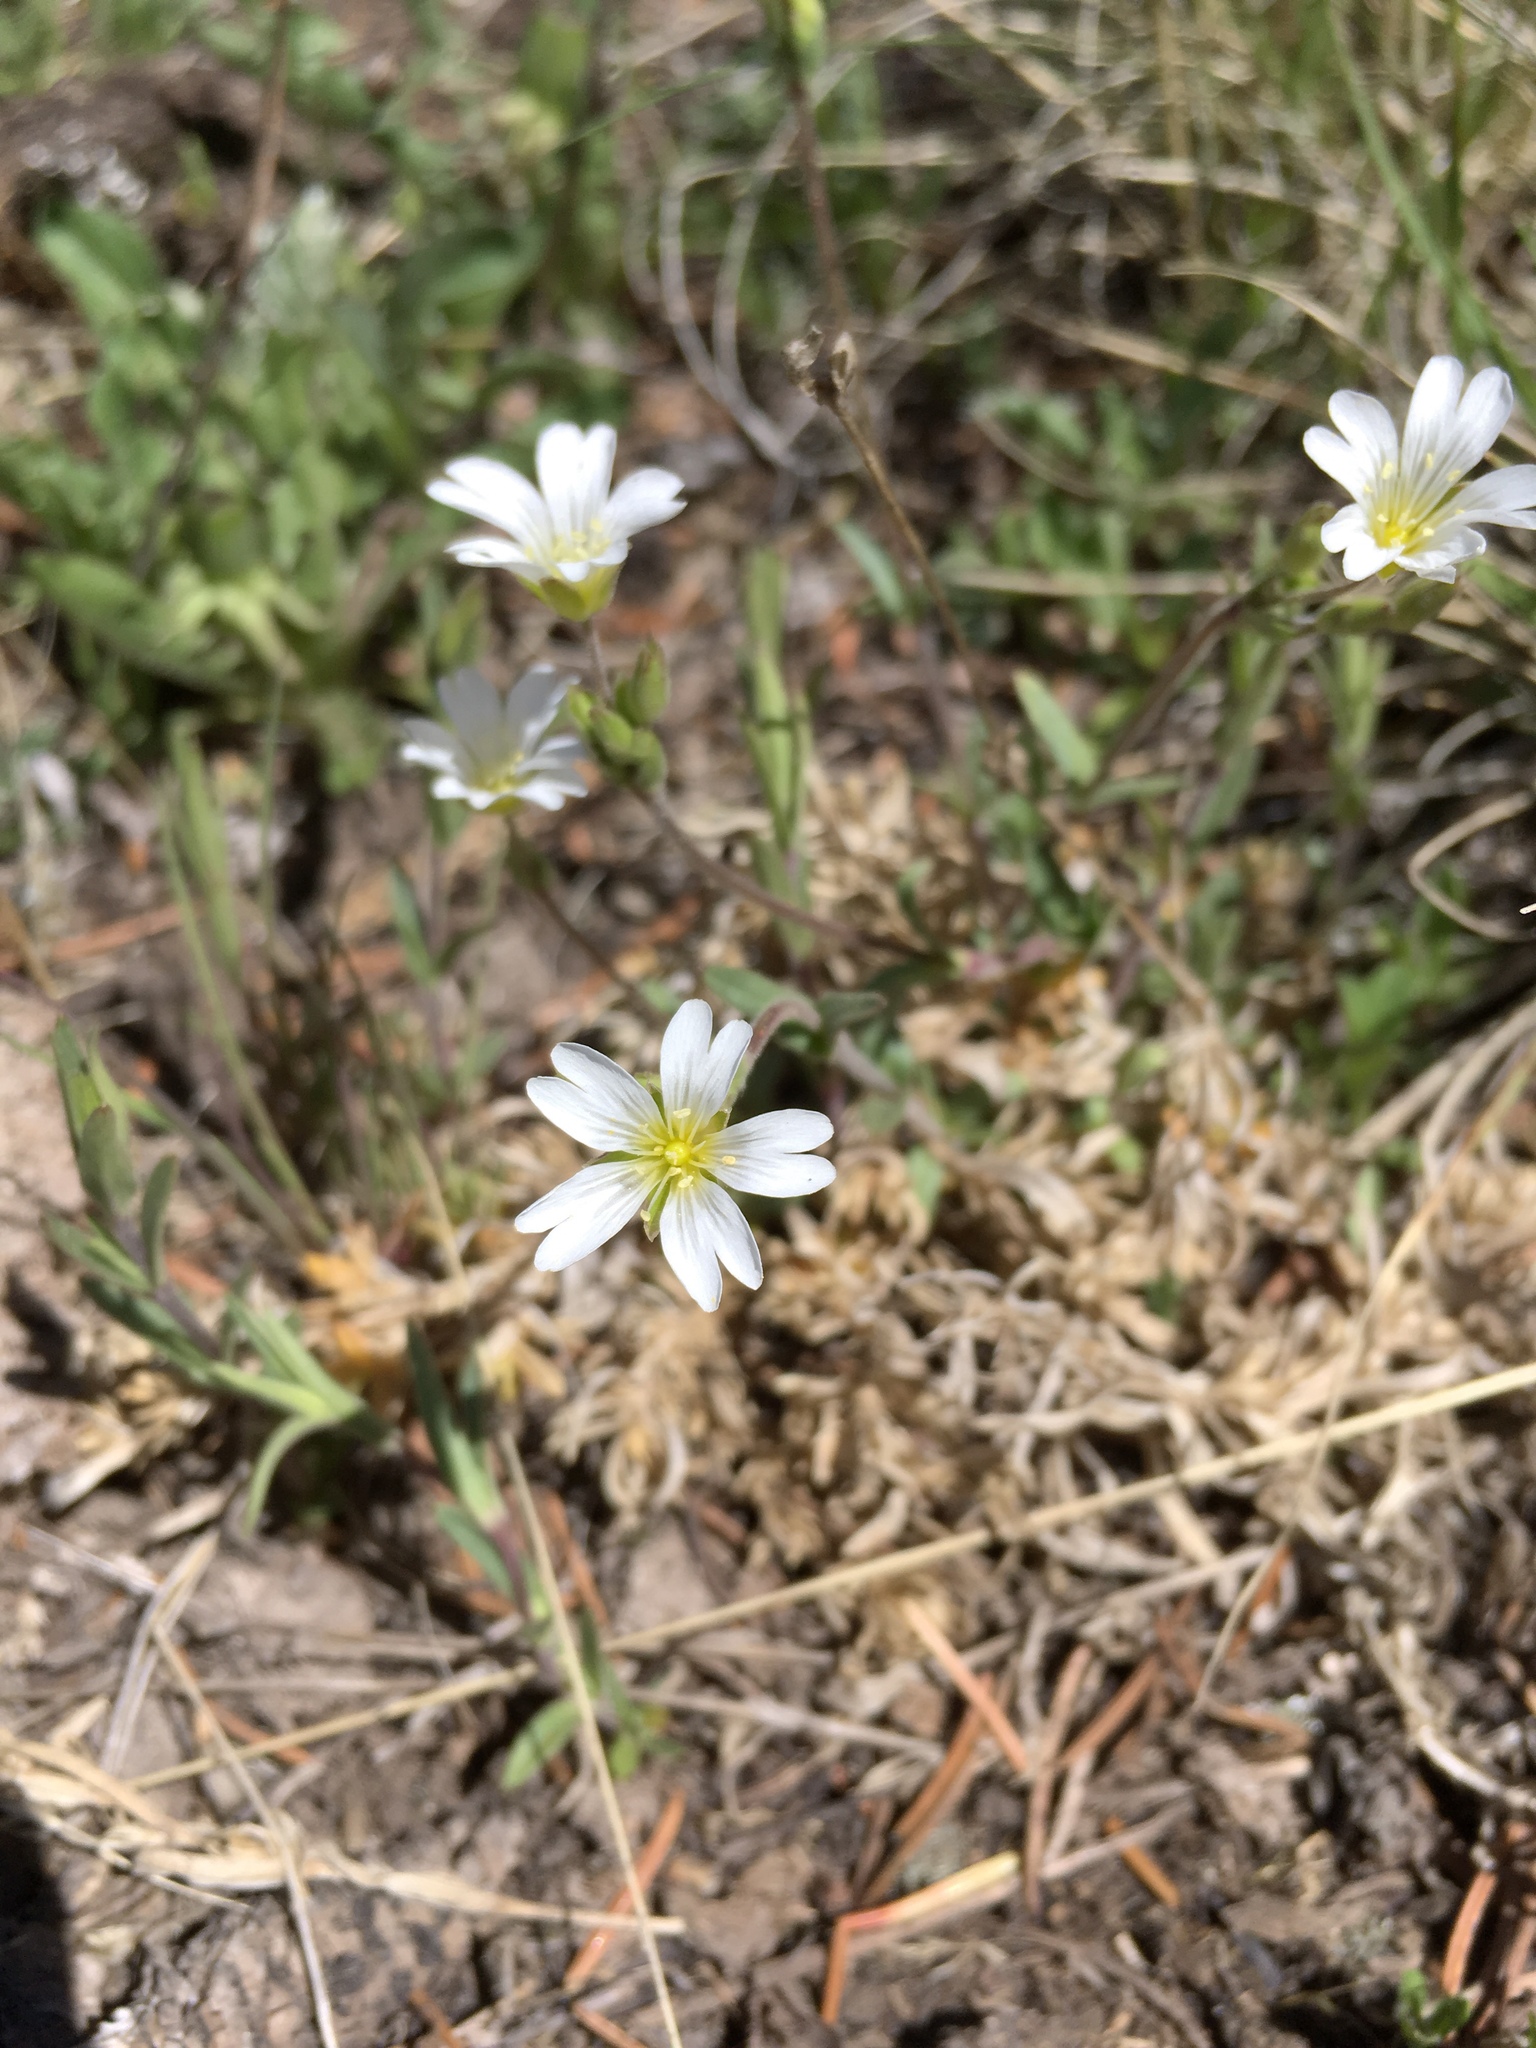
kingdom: Plantae
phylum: Tracheophyta
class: Magnoliopsida
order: Caryophyllales
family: Caryophyllaceae
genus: Cerastium
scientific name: Cerastium arvense
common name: Field mouse-ear
